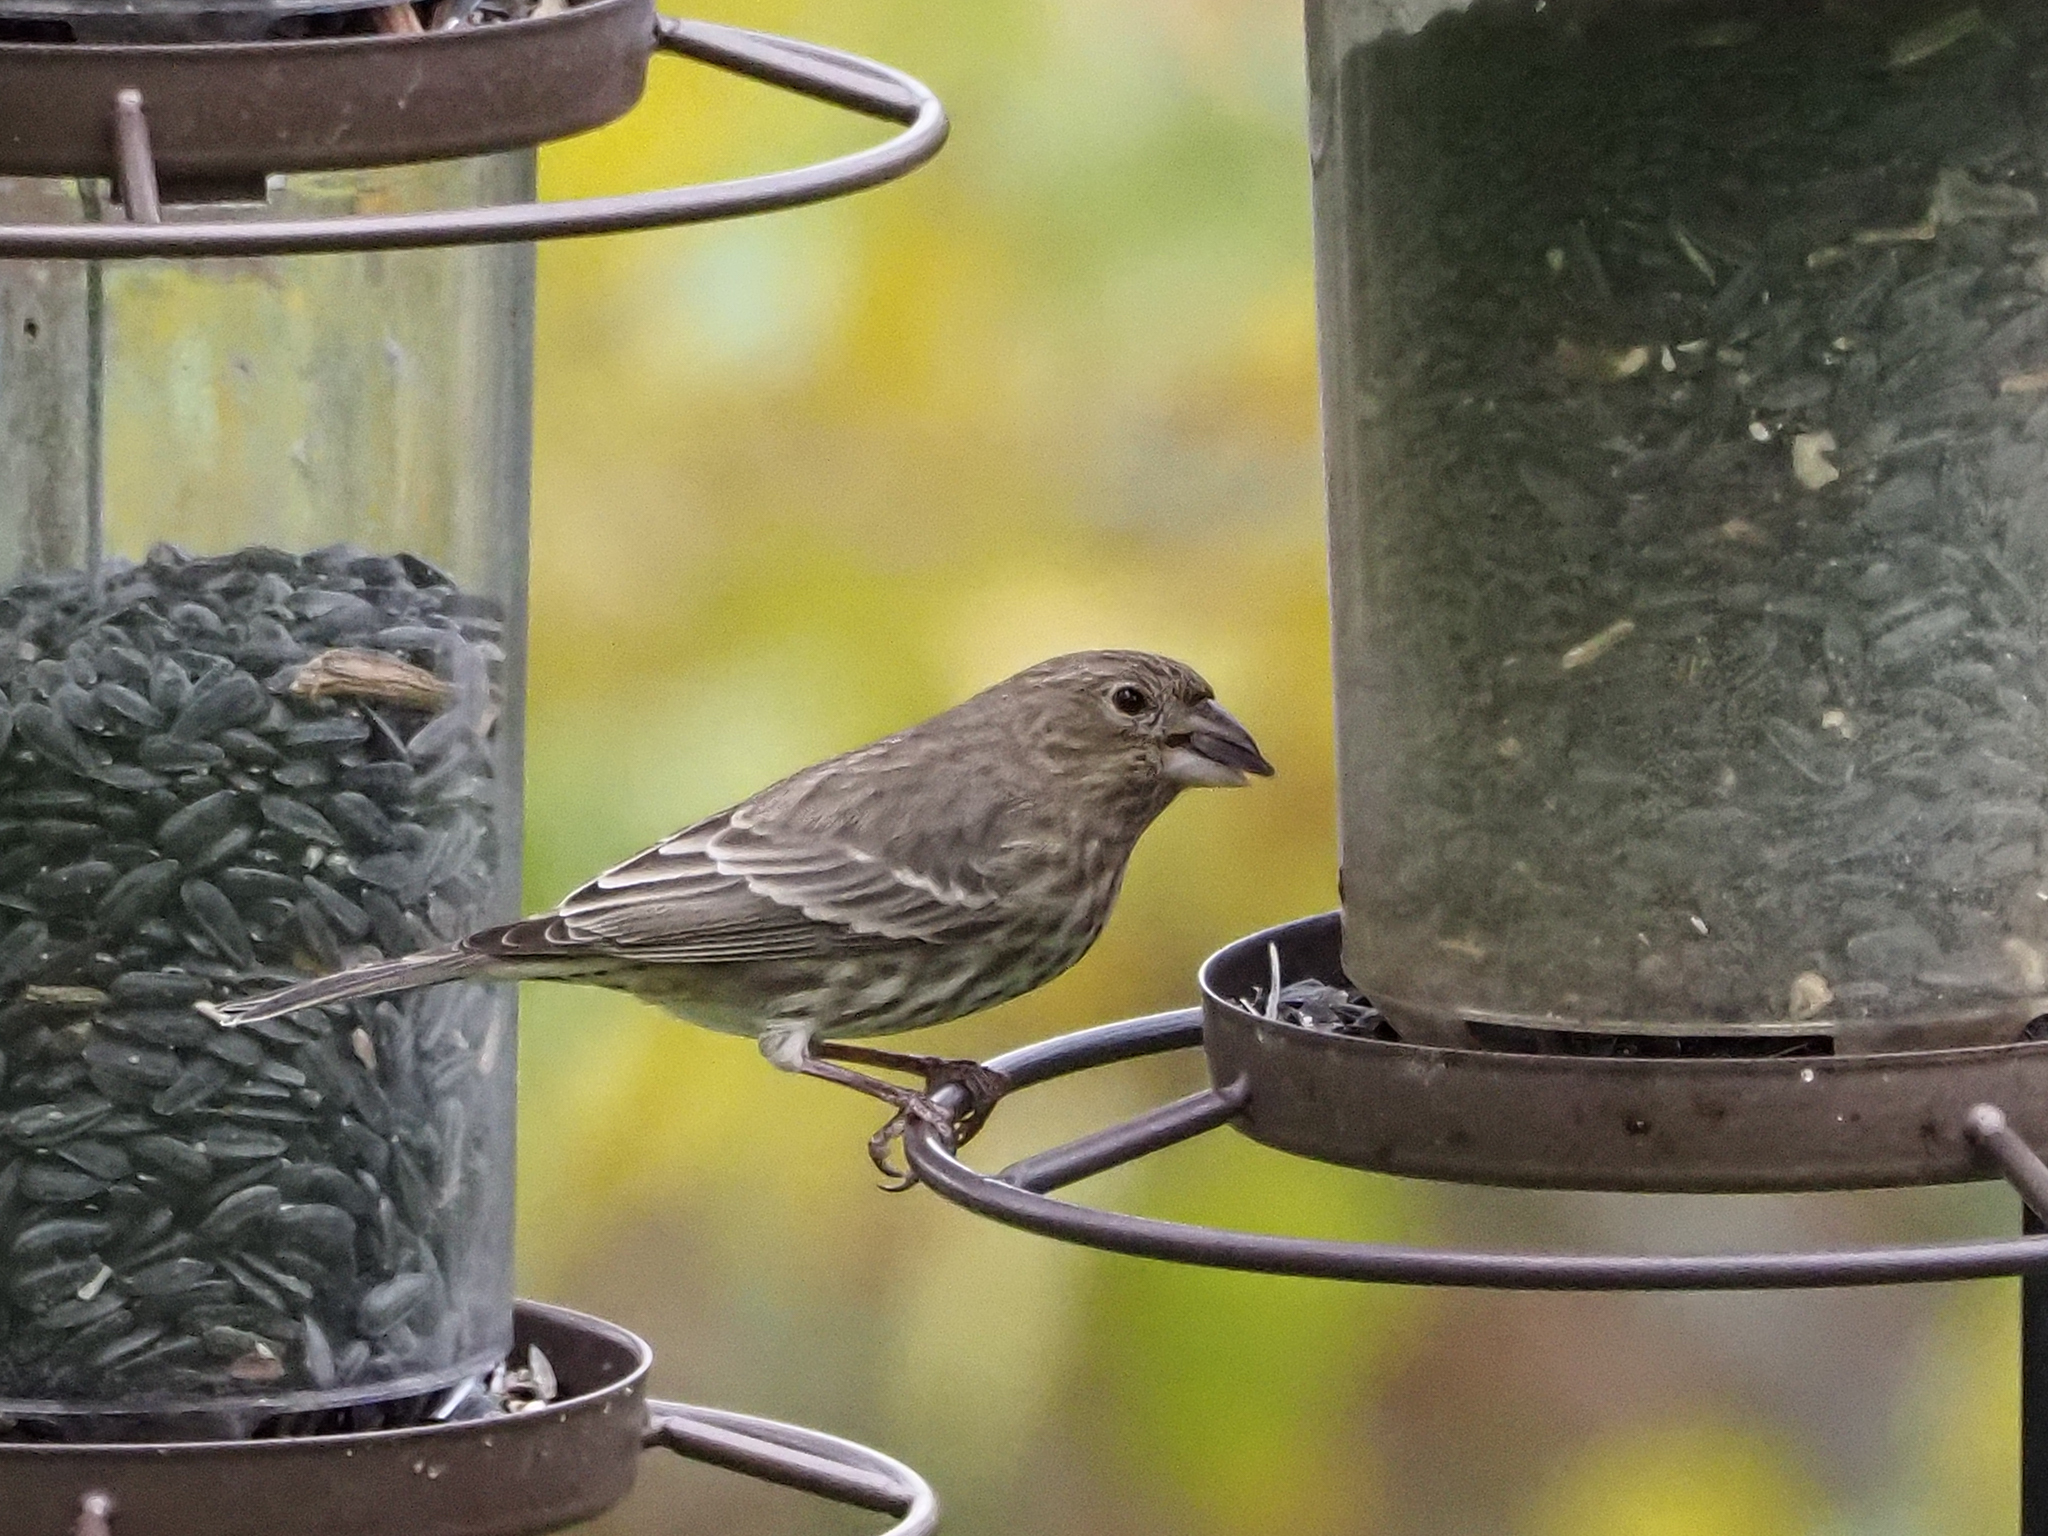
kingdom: Animalia
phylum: Chordata
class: Aves
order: Passeriformes
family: Fringillidae
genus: Haemorhous
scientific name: Haemorhous mexicanus
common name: House finch
